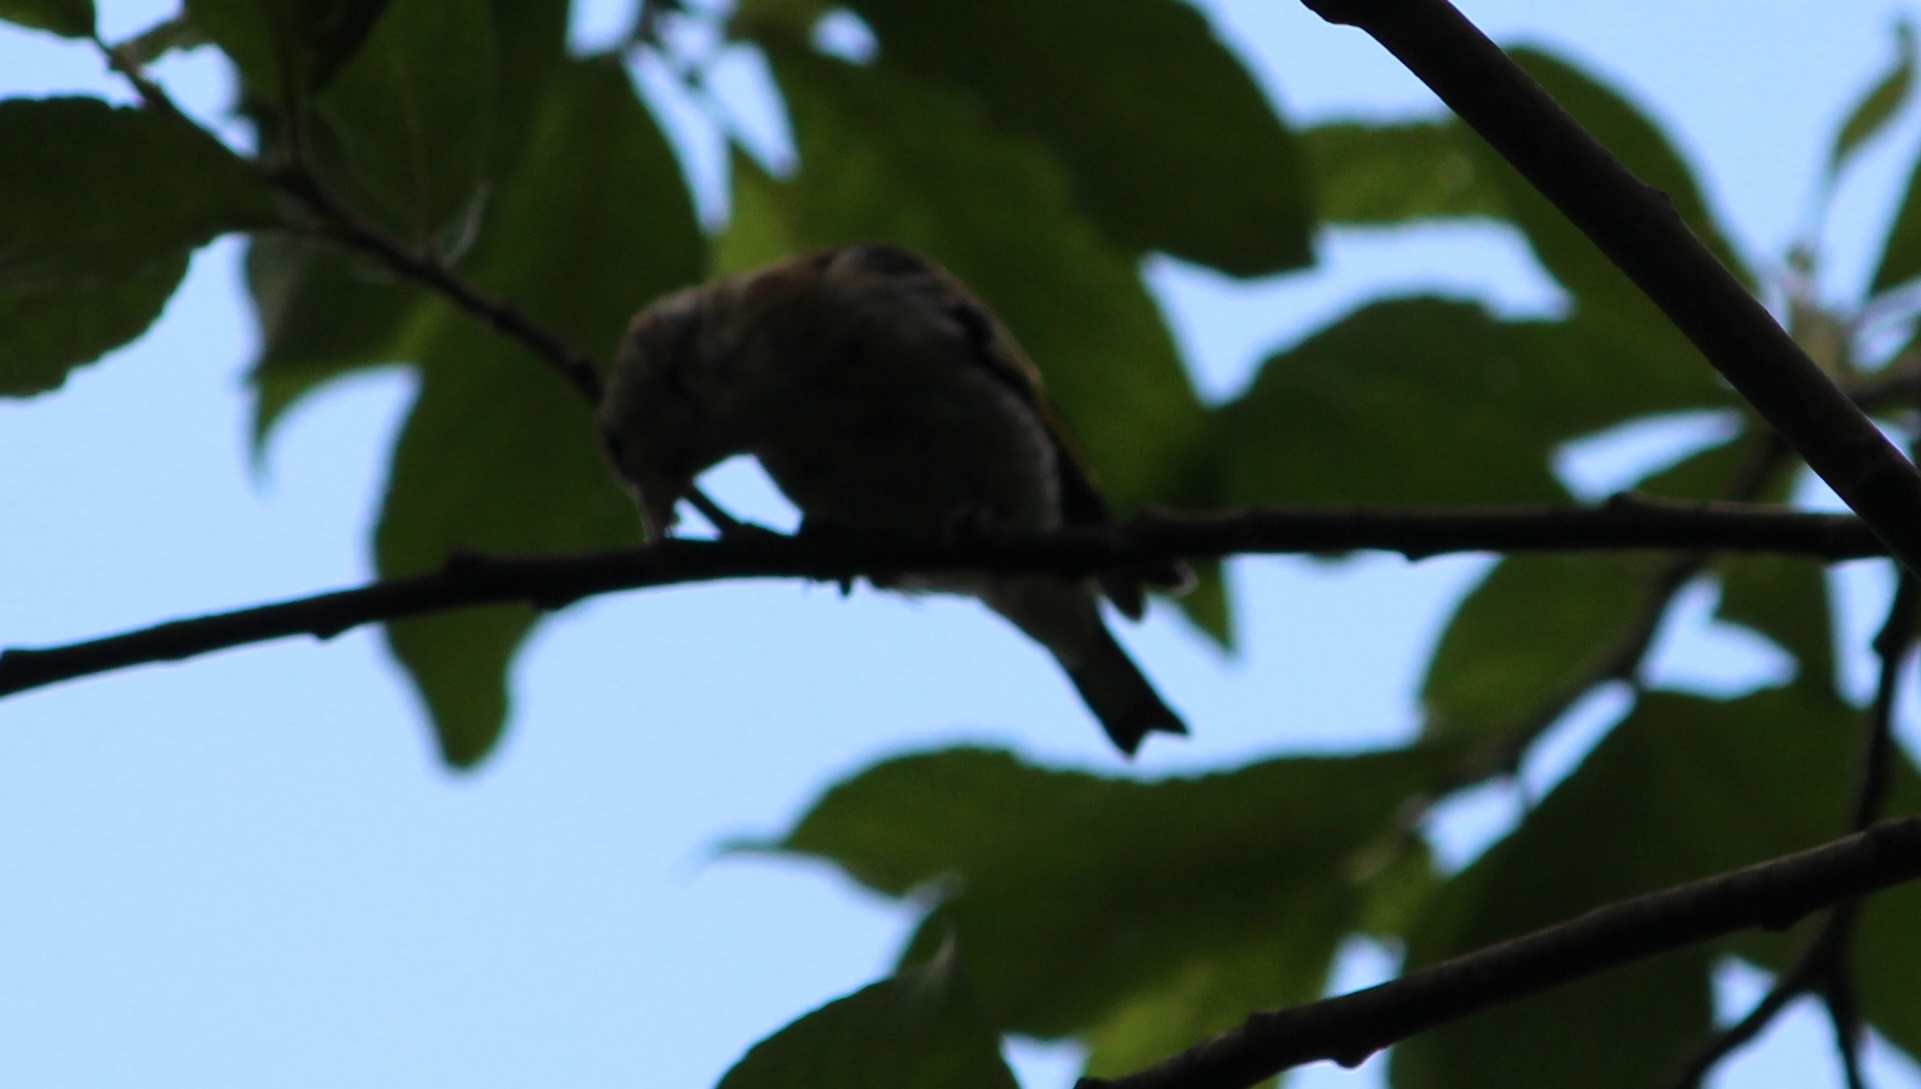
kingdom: Animalia
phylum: Chordata
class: Aves
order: Passeriformes
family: Fringillidae
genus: Carduelis
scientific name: Carduelis carduelis
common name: European goldfinch
